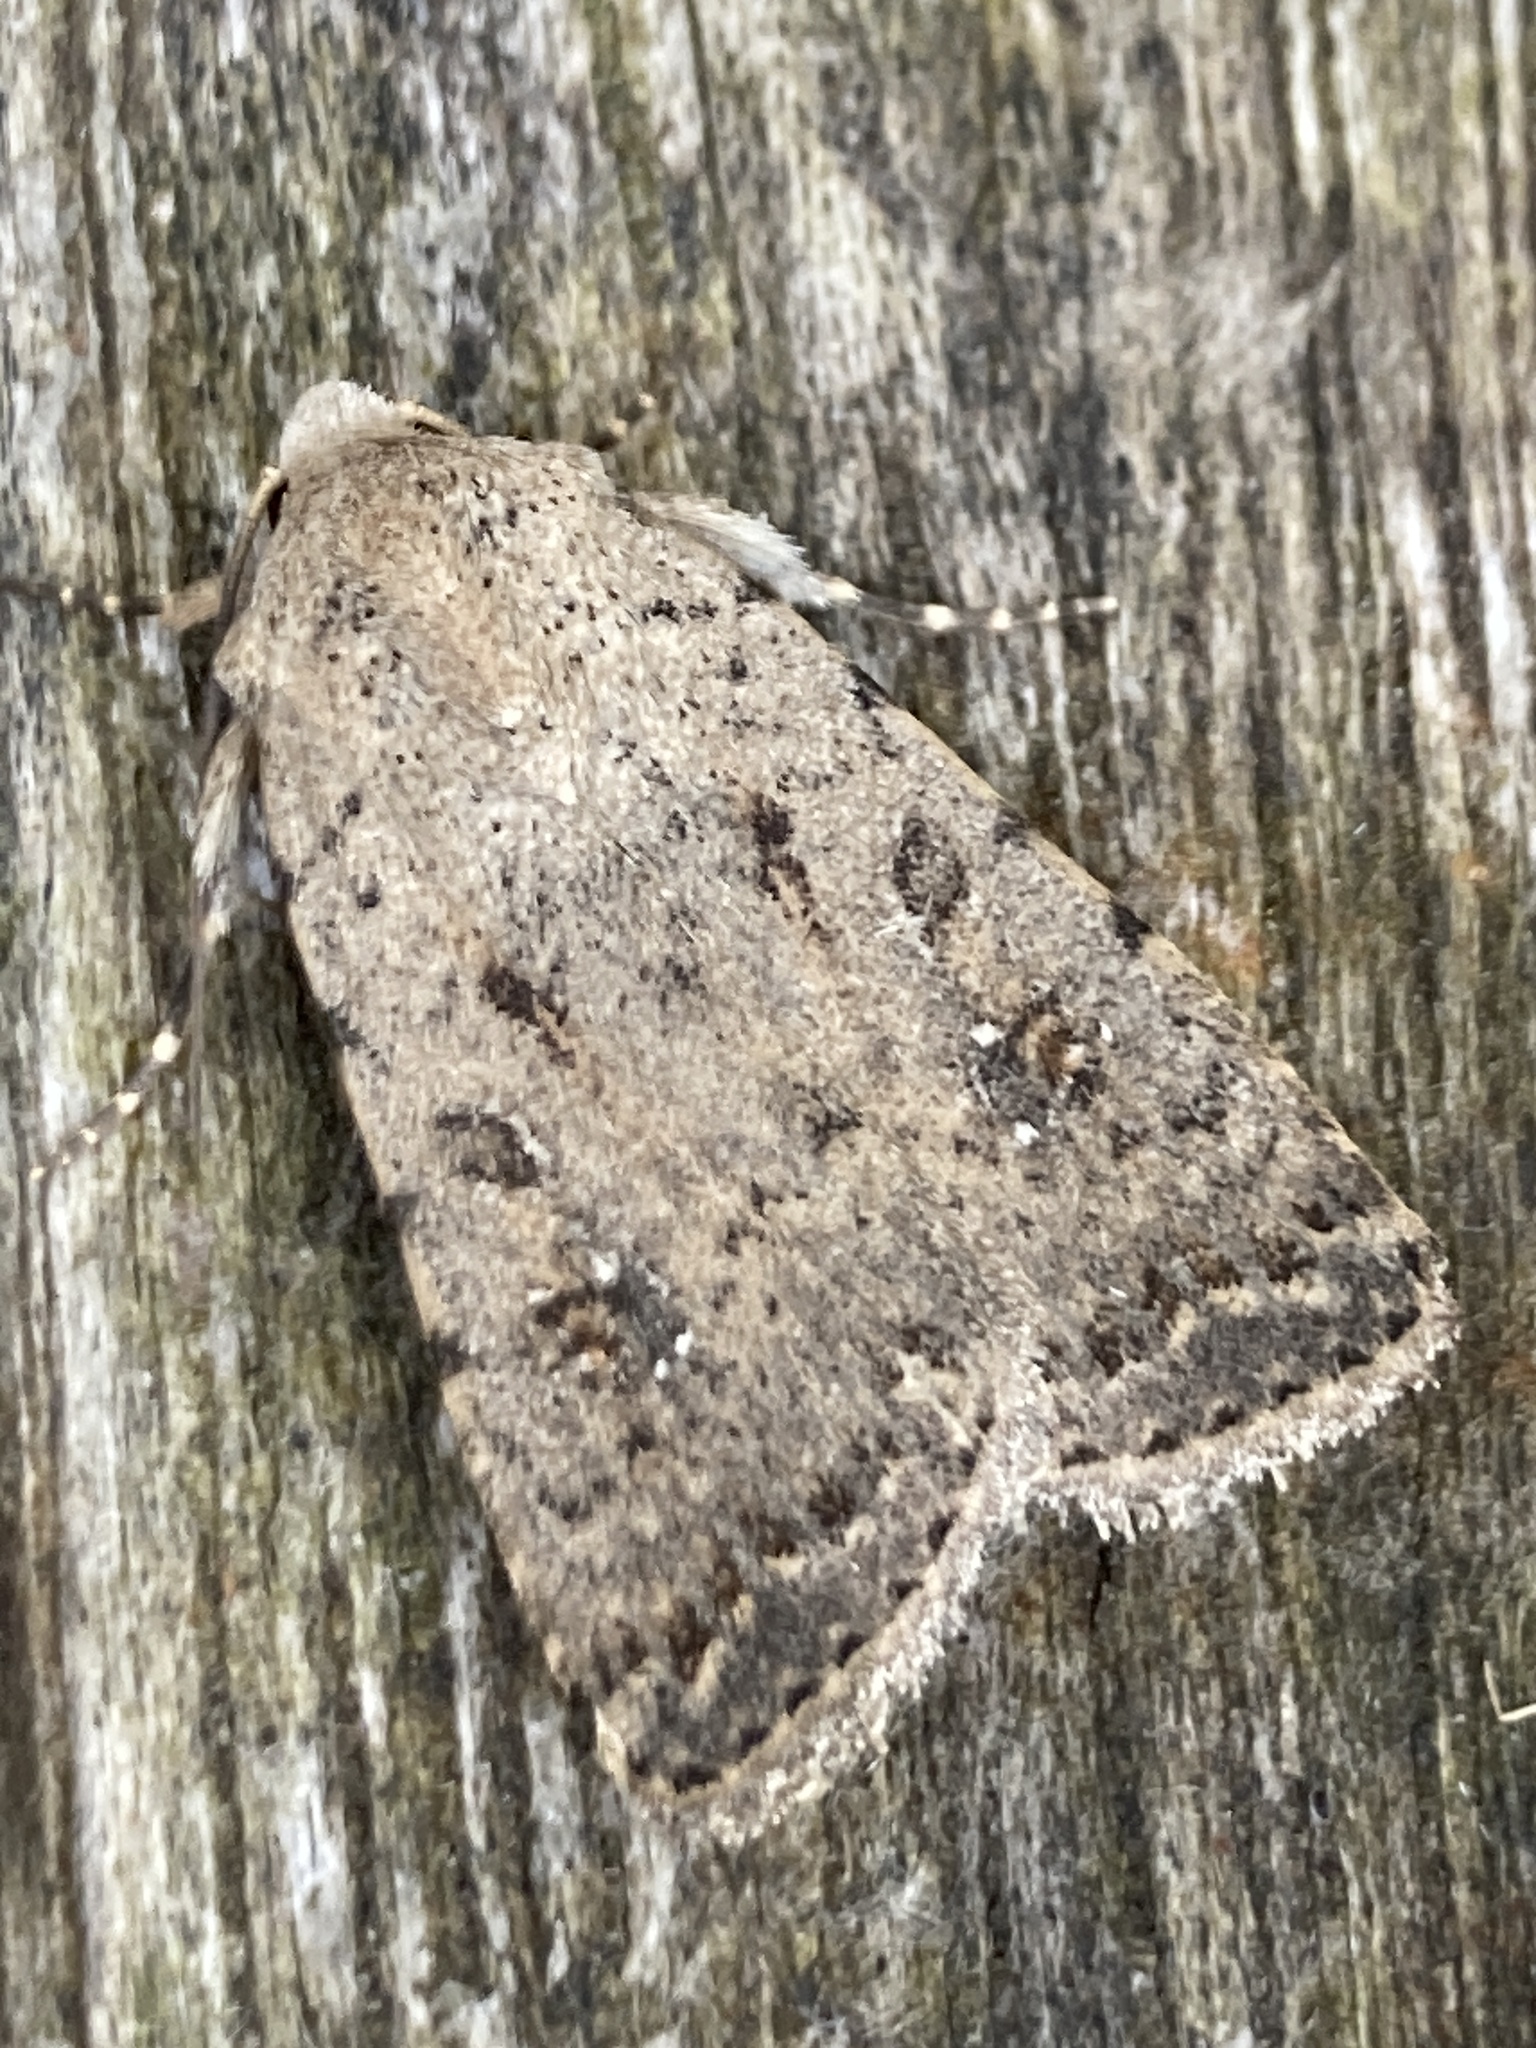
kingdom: Animalia
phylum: Arthropoda
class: Insecta
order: Lepidoptera
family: Noctuidae
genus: Caradrina
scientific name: Caradrina clavipalpis
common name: Pale mottled willow
